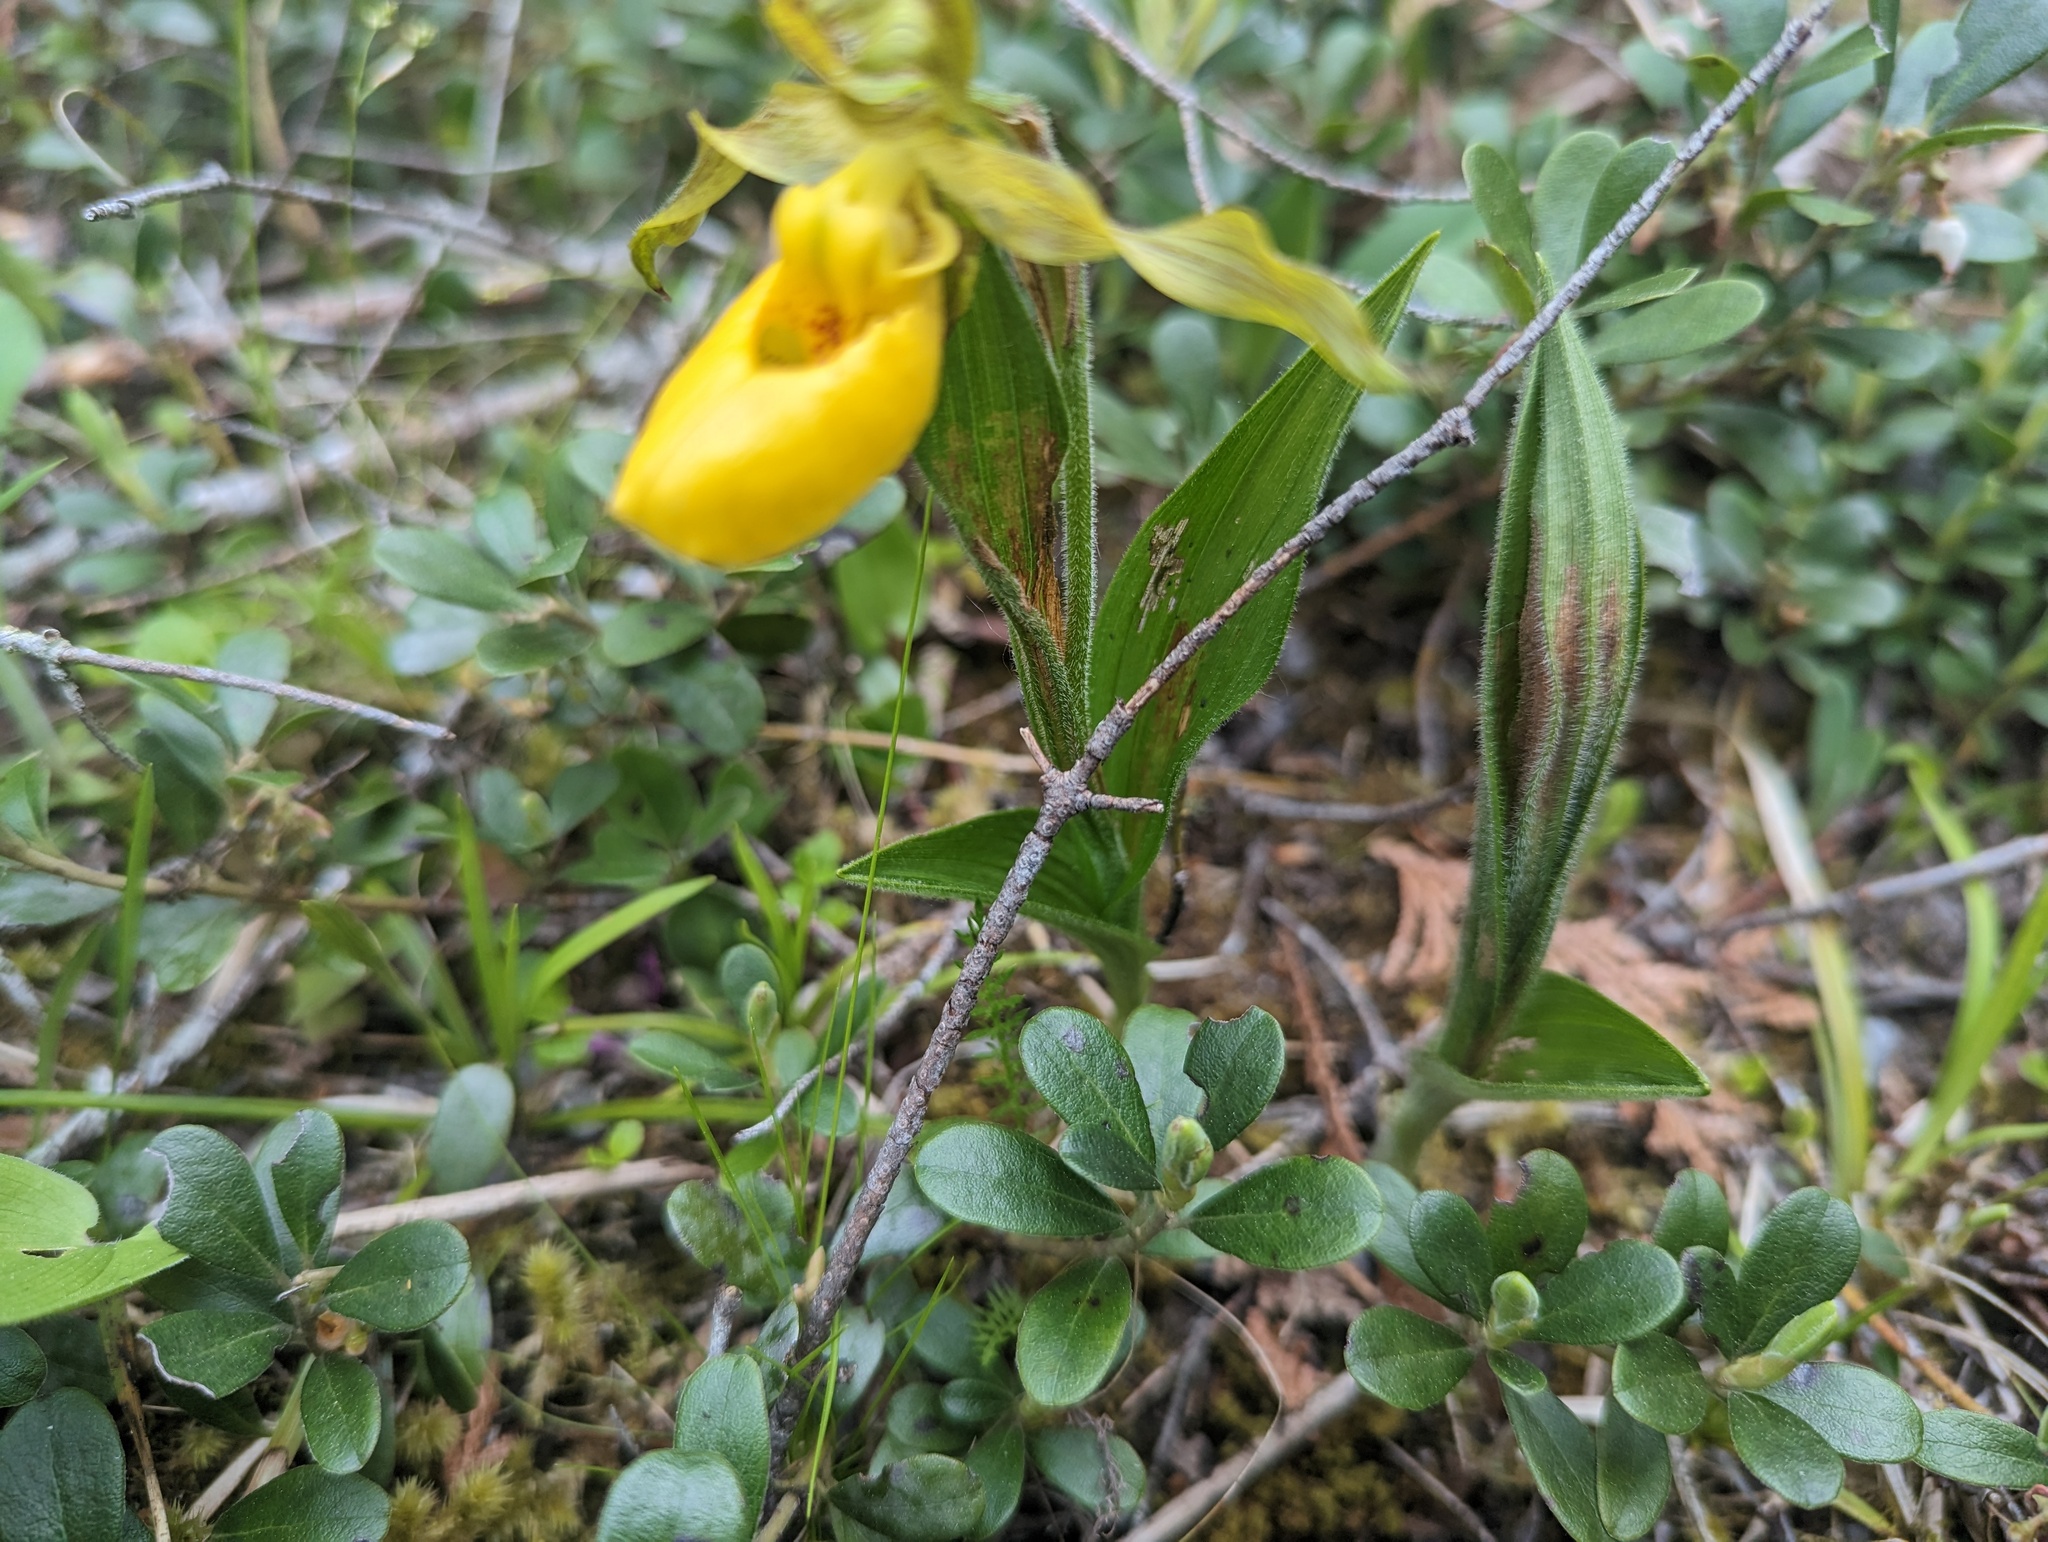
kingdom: Plantae
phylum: Tracheophyta
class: Liliopsida
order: Asparagales
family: Orchidaceae
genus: Cypripedium
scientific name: Cypripedium parviflorum
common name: American yellow lady's-slipper
